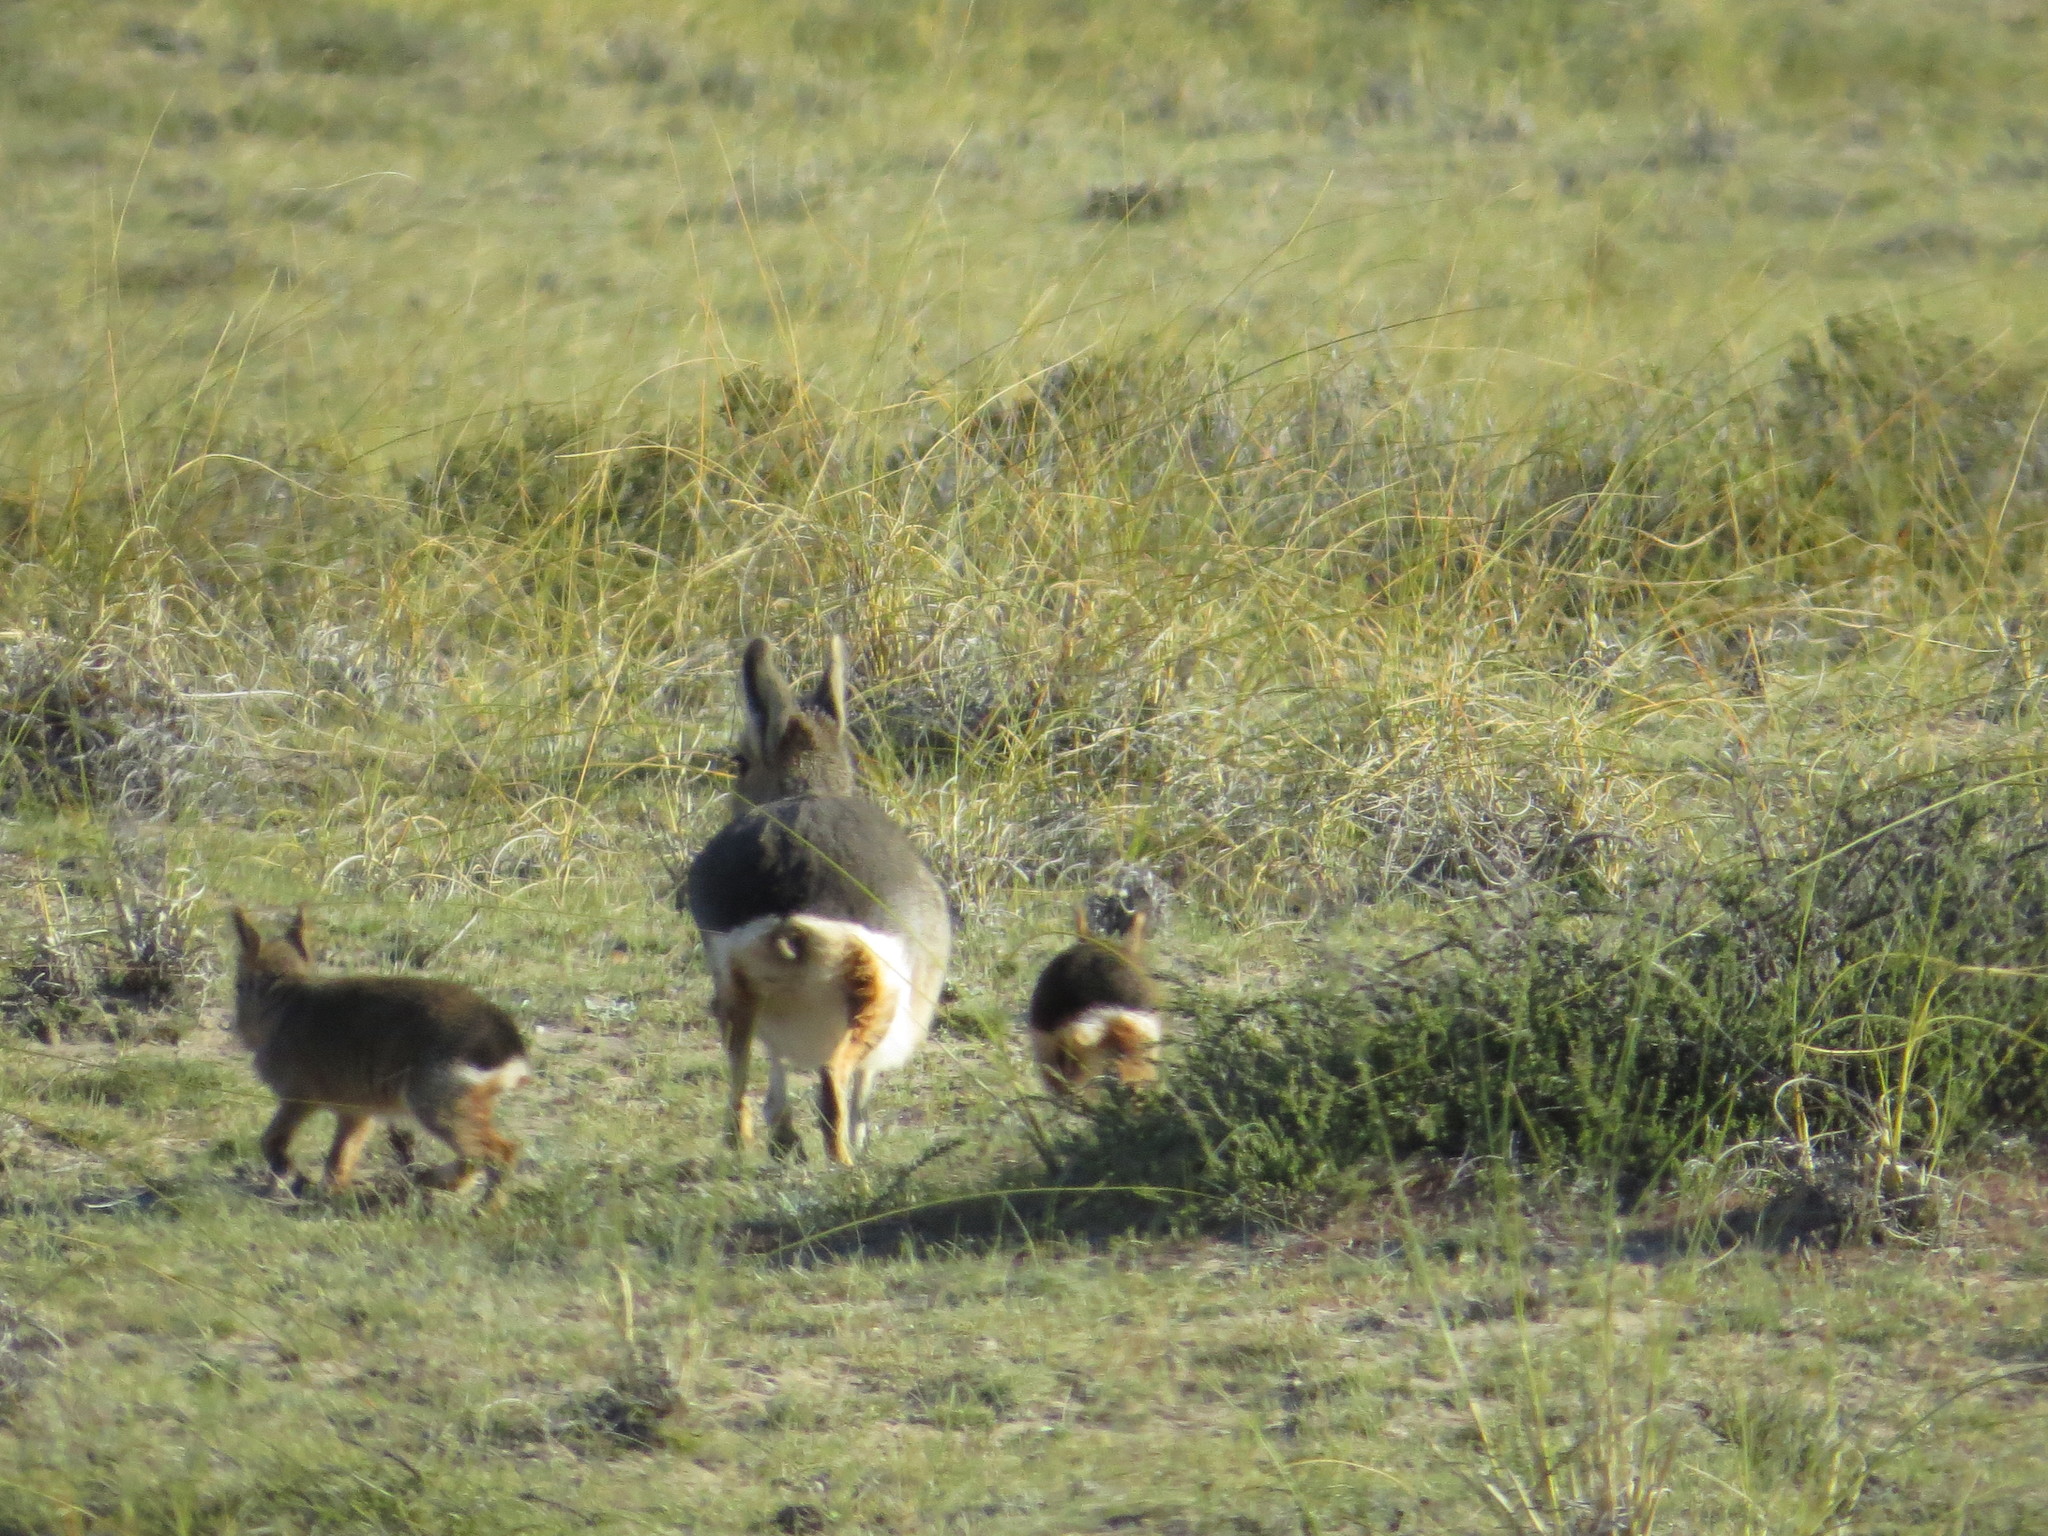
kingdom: Animalia
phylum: Chordata
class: Mammalia
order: Rodentia
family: Caviidae
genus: Dolichotis
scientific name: Dolichotis patagonum
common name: Patagonian mara
